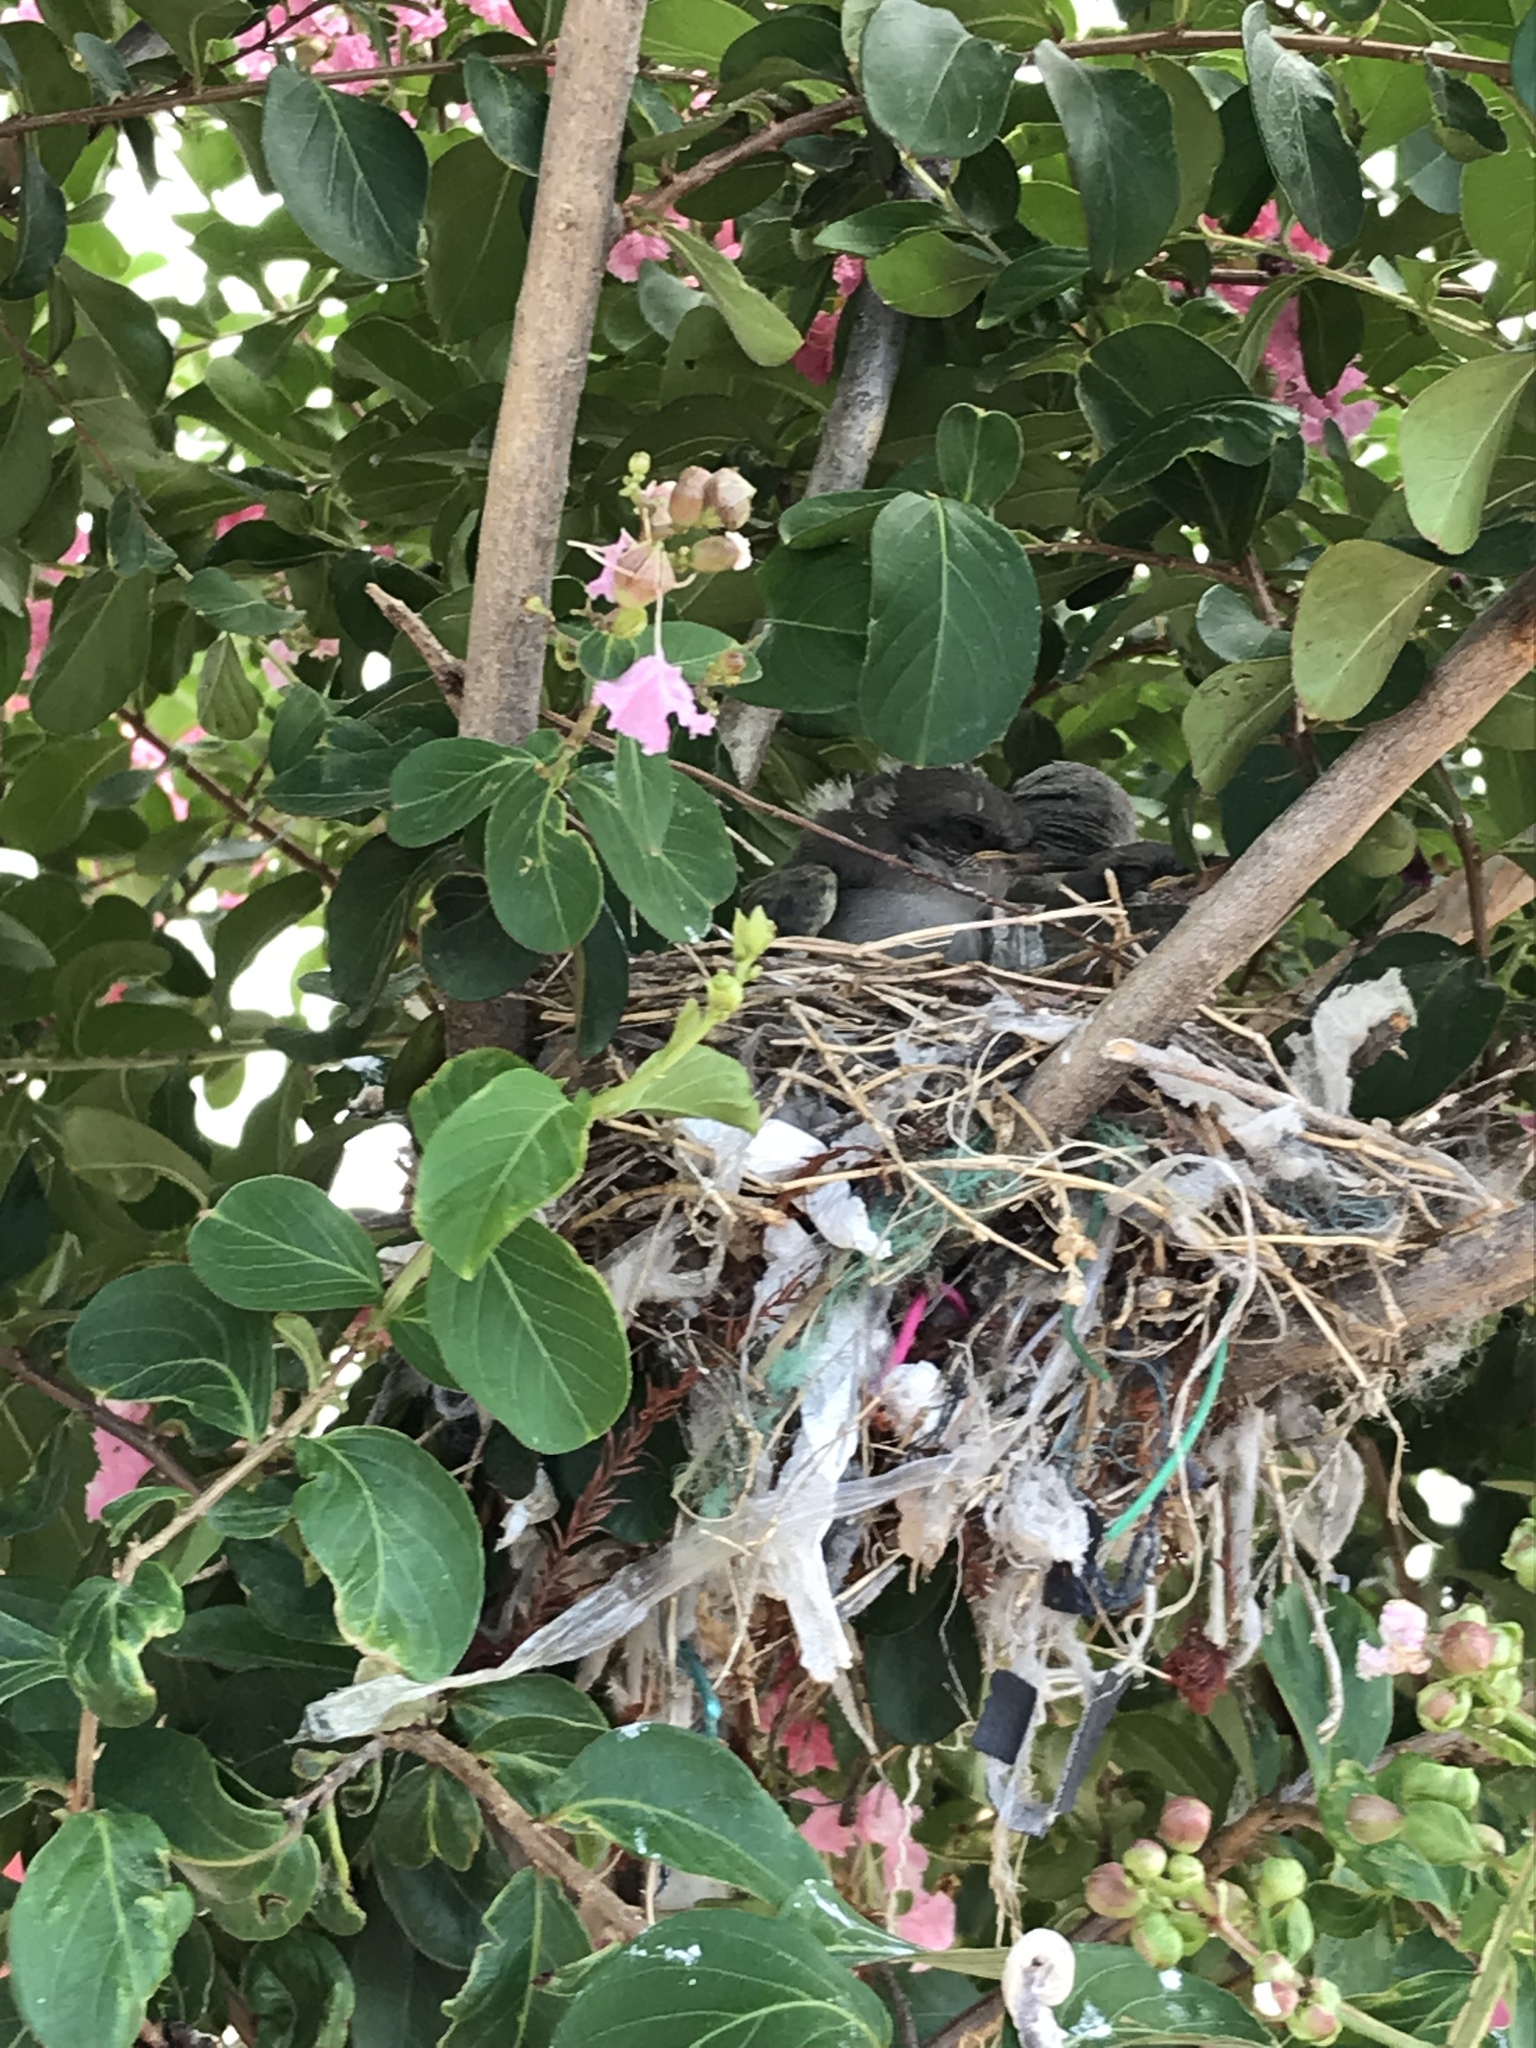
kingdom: Animalia
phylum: Chordata
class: Aves
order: Passeriformes
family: Mimidae
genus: Mimus
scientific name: Mimus polyglottos
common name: Northern mockingbird
